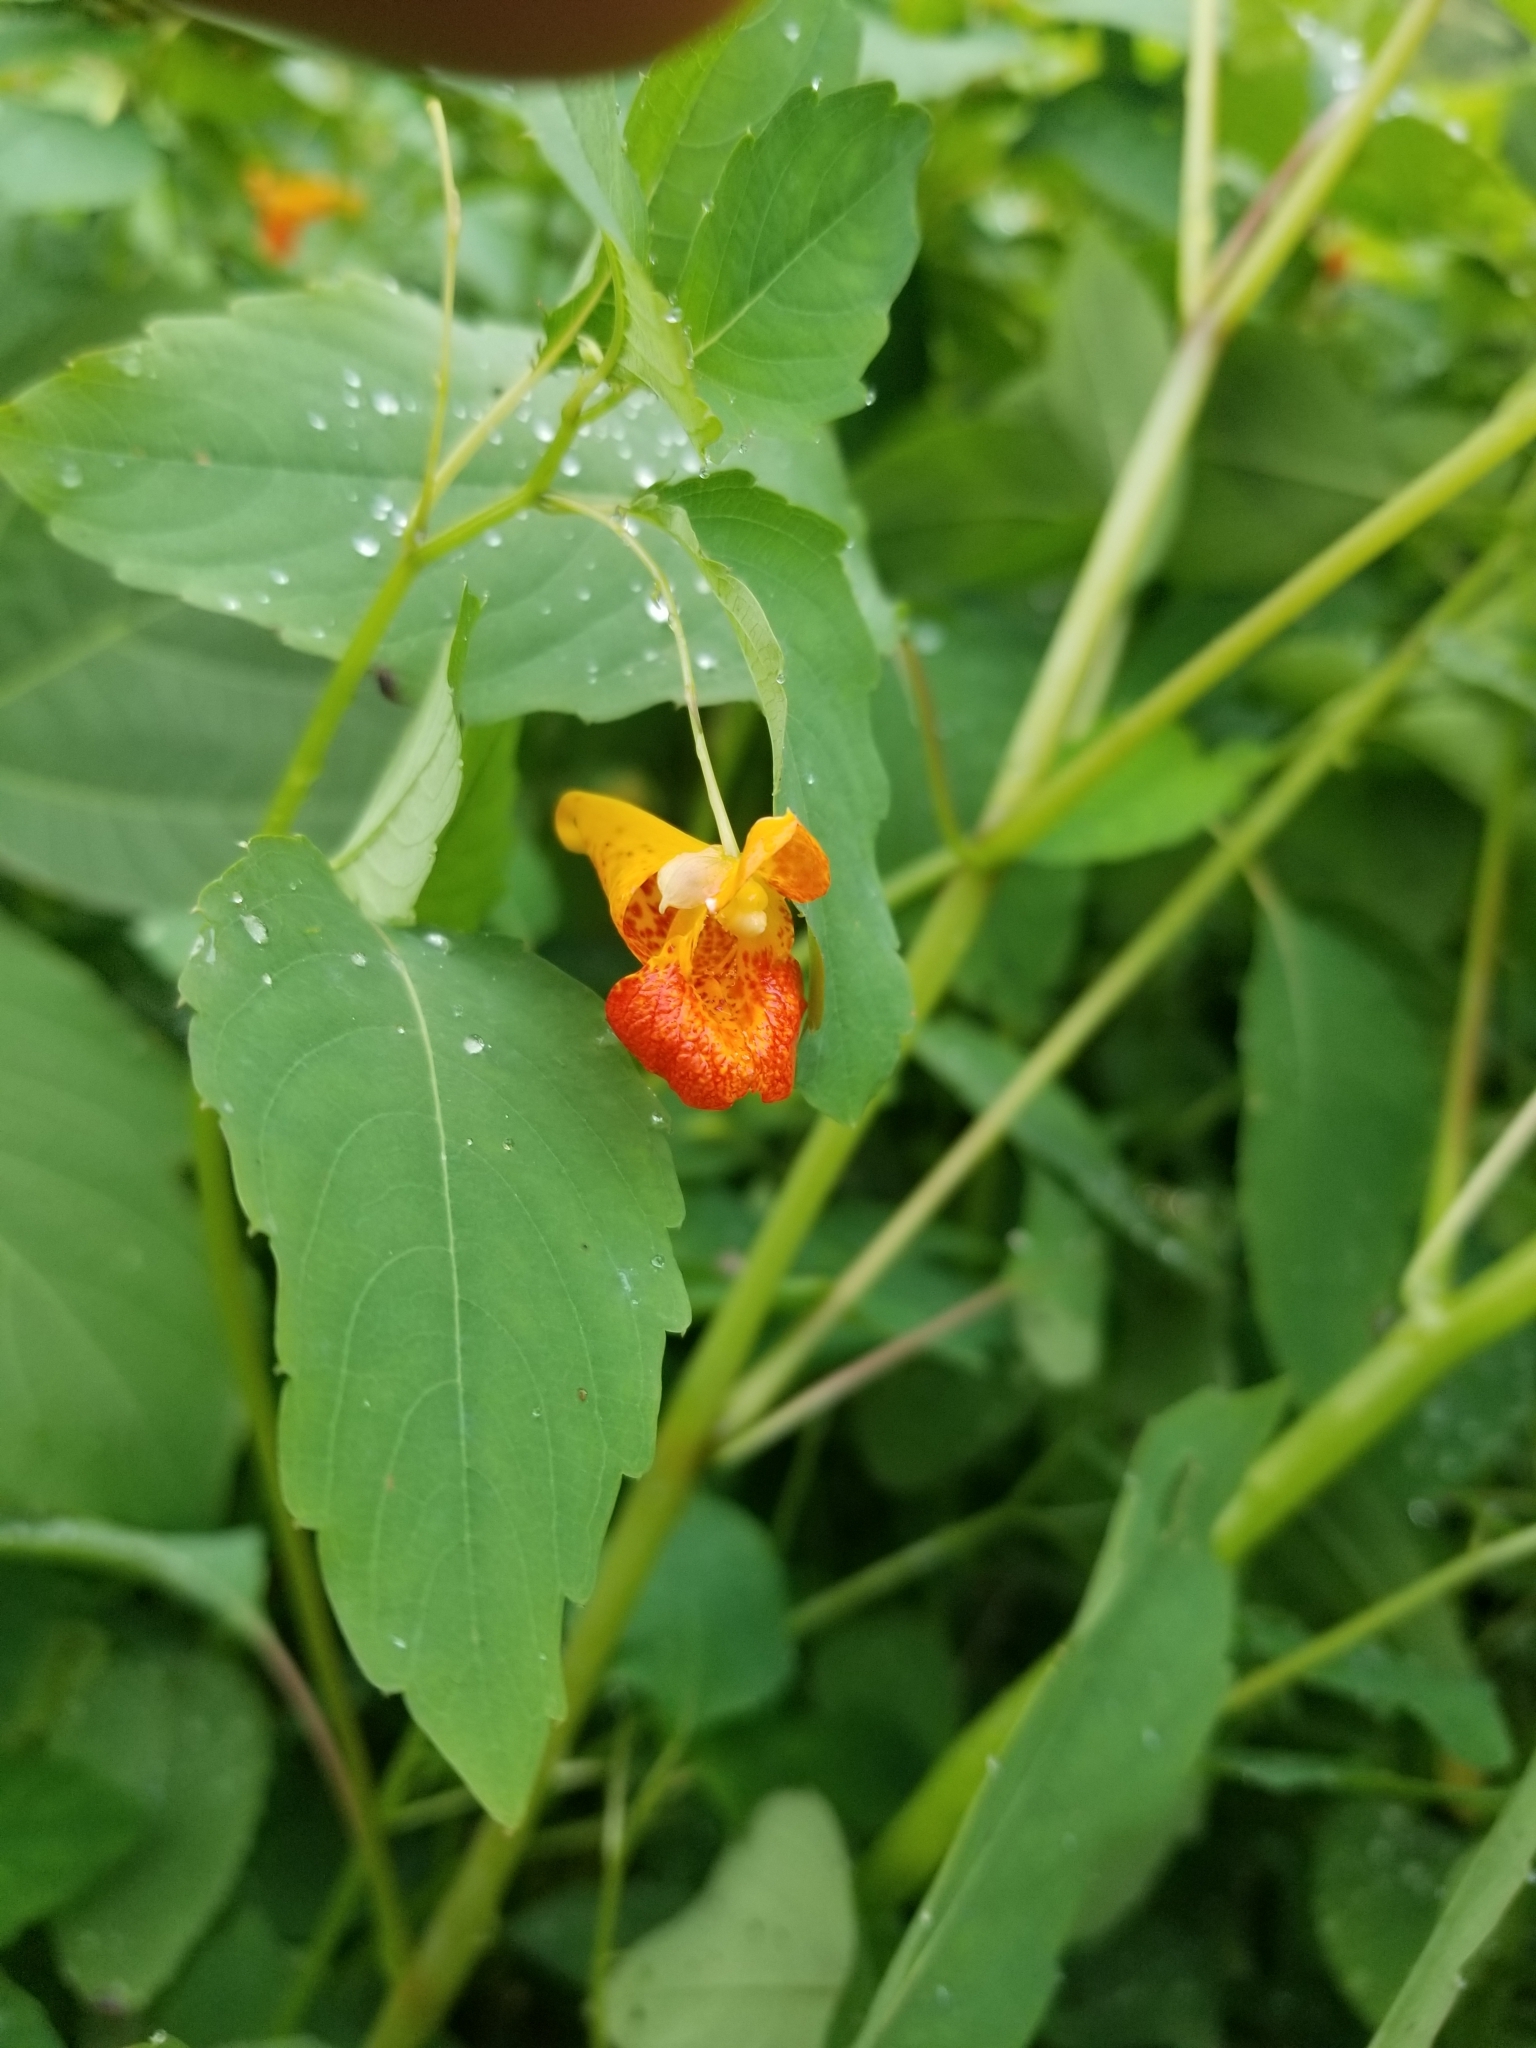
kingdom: Plantae
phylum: Tracheophyta
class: Magnoliopsida
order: Ericales
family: Balsaminaceae
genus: Impatiens
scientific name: Impatiens capensis
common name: Orange balsam
